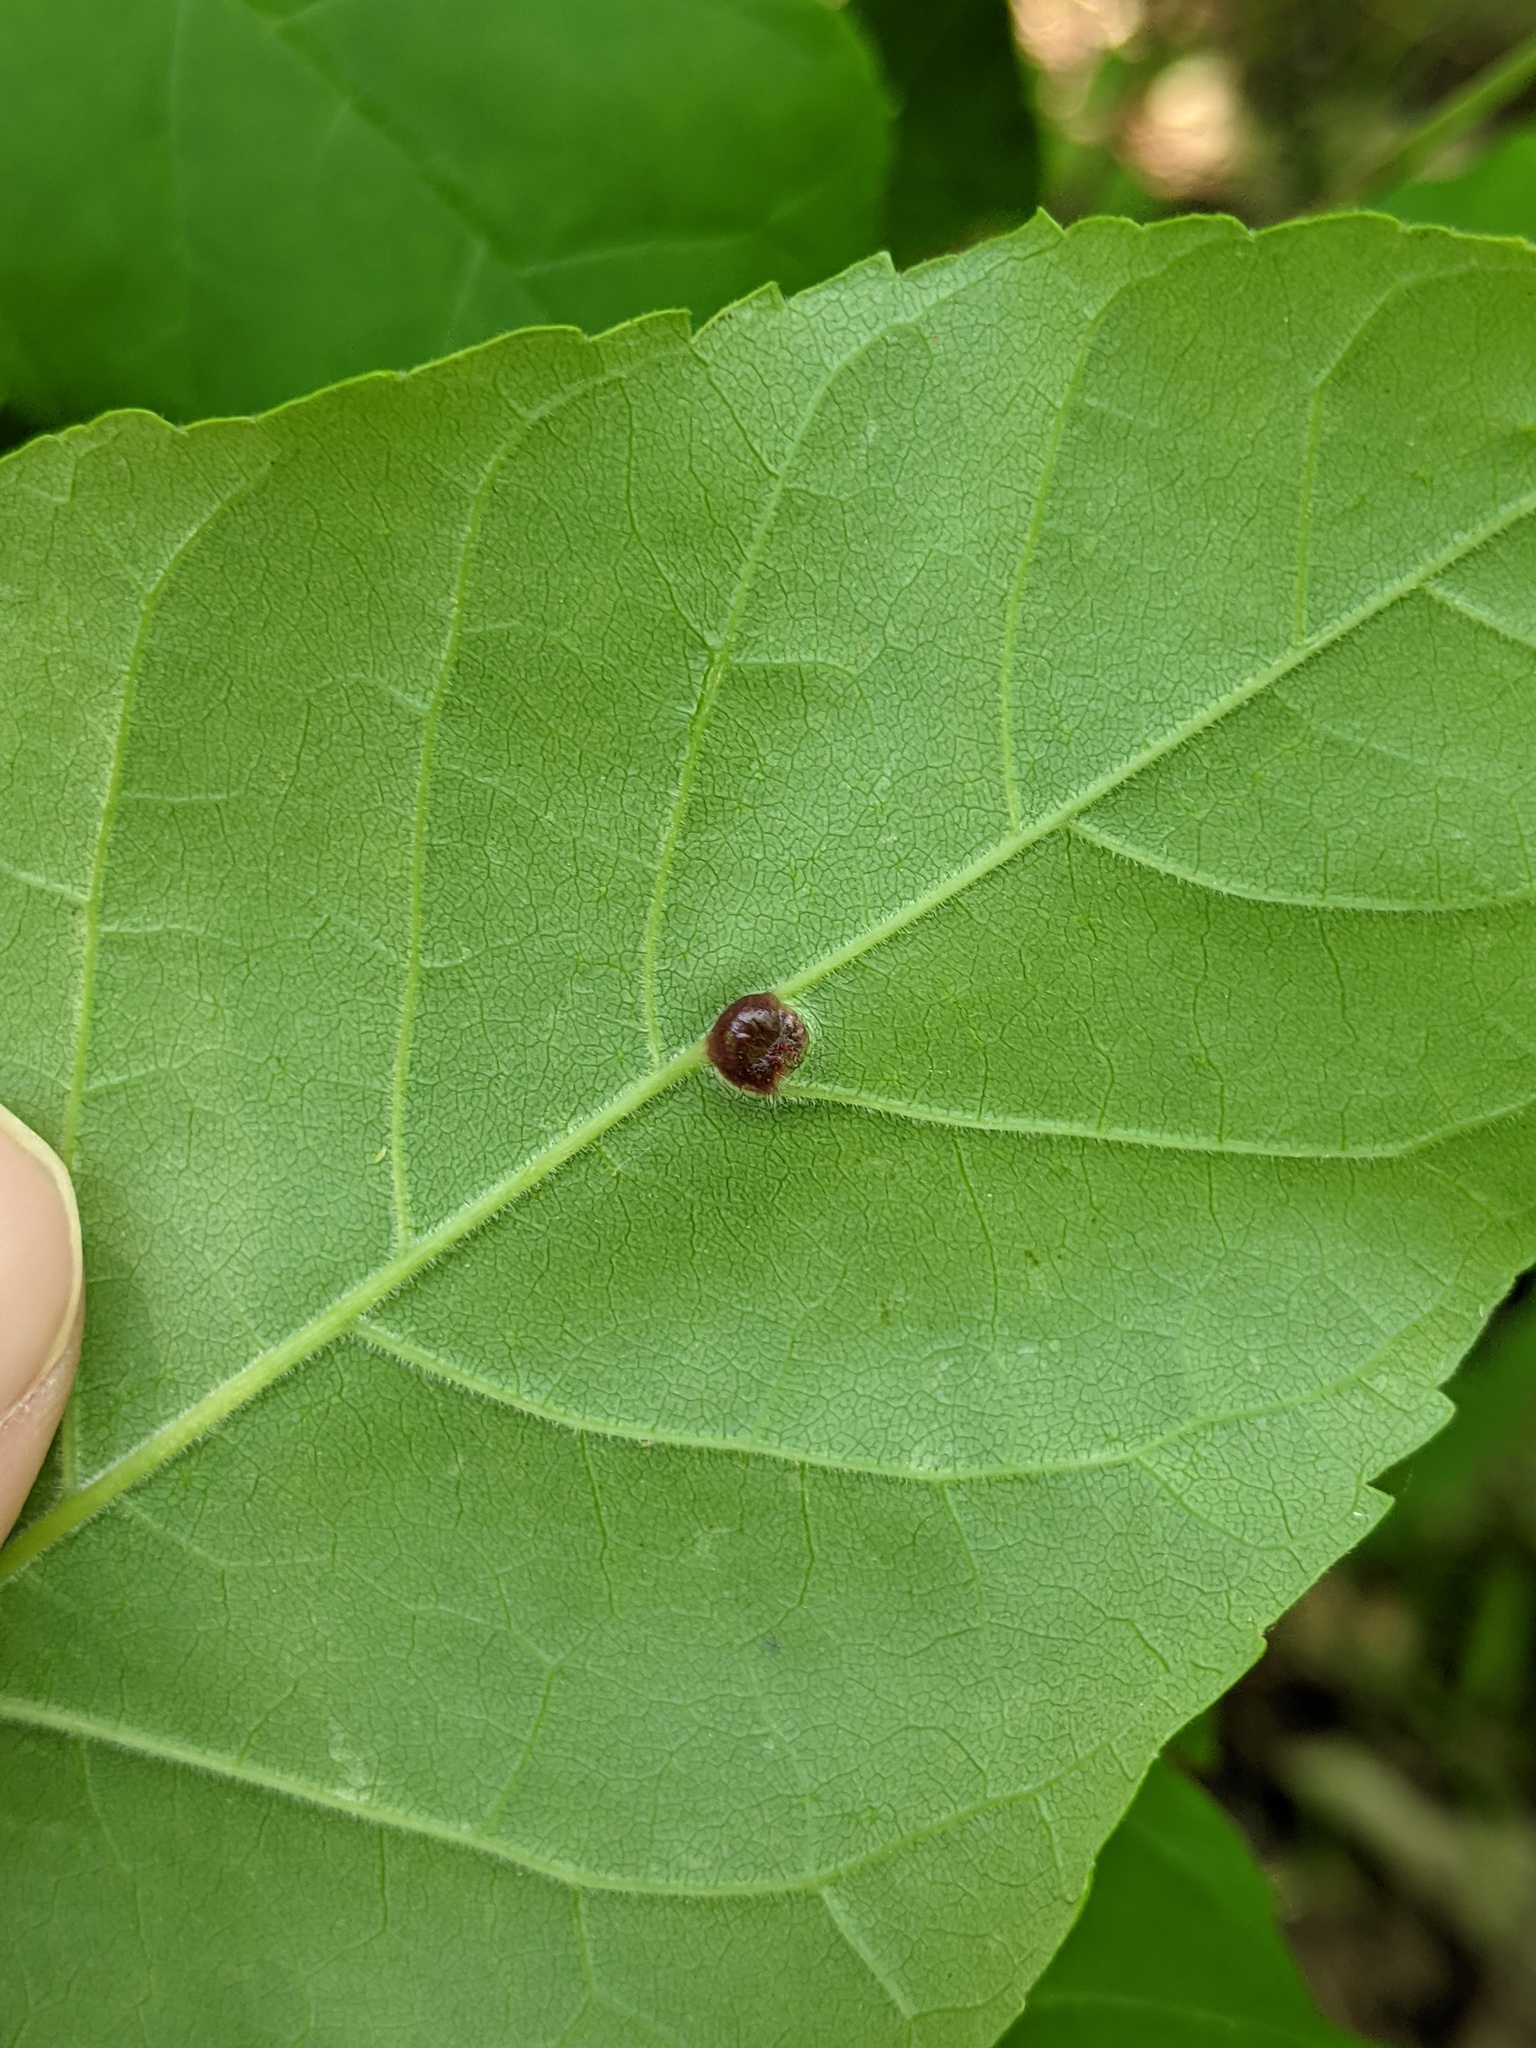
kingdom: Animalia
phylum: Arthropoda
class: Insecta
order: Diptera
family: Cecidomyiidae
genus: Dasineura
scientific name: Dasineura pellex
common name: Ash bullet gall midge
